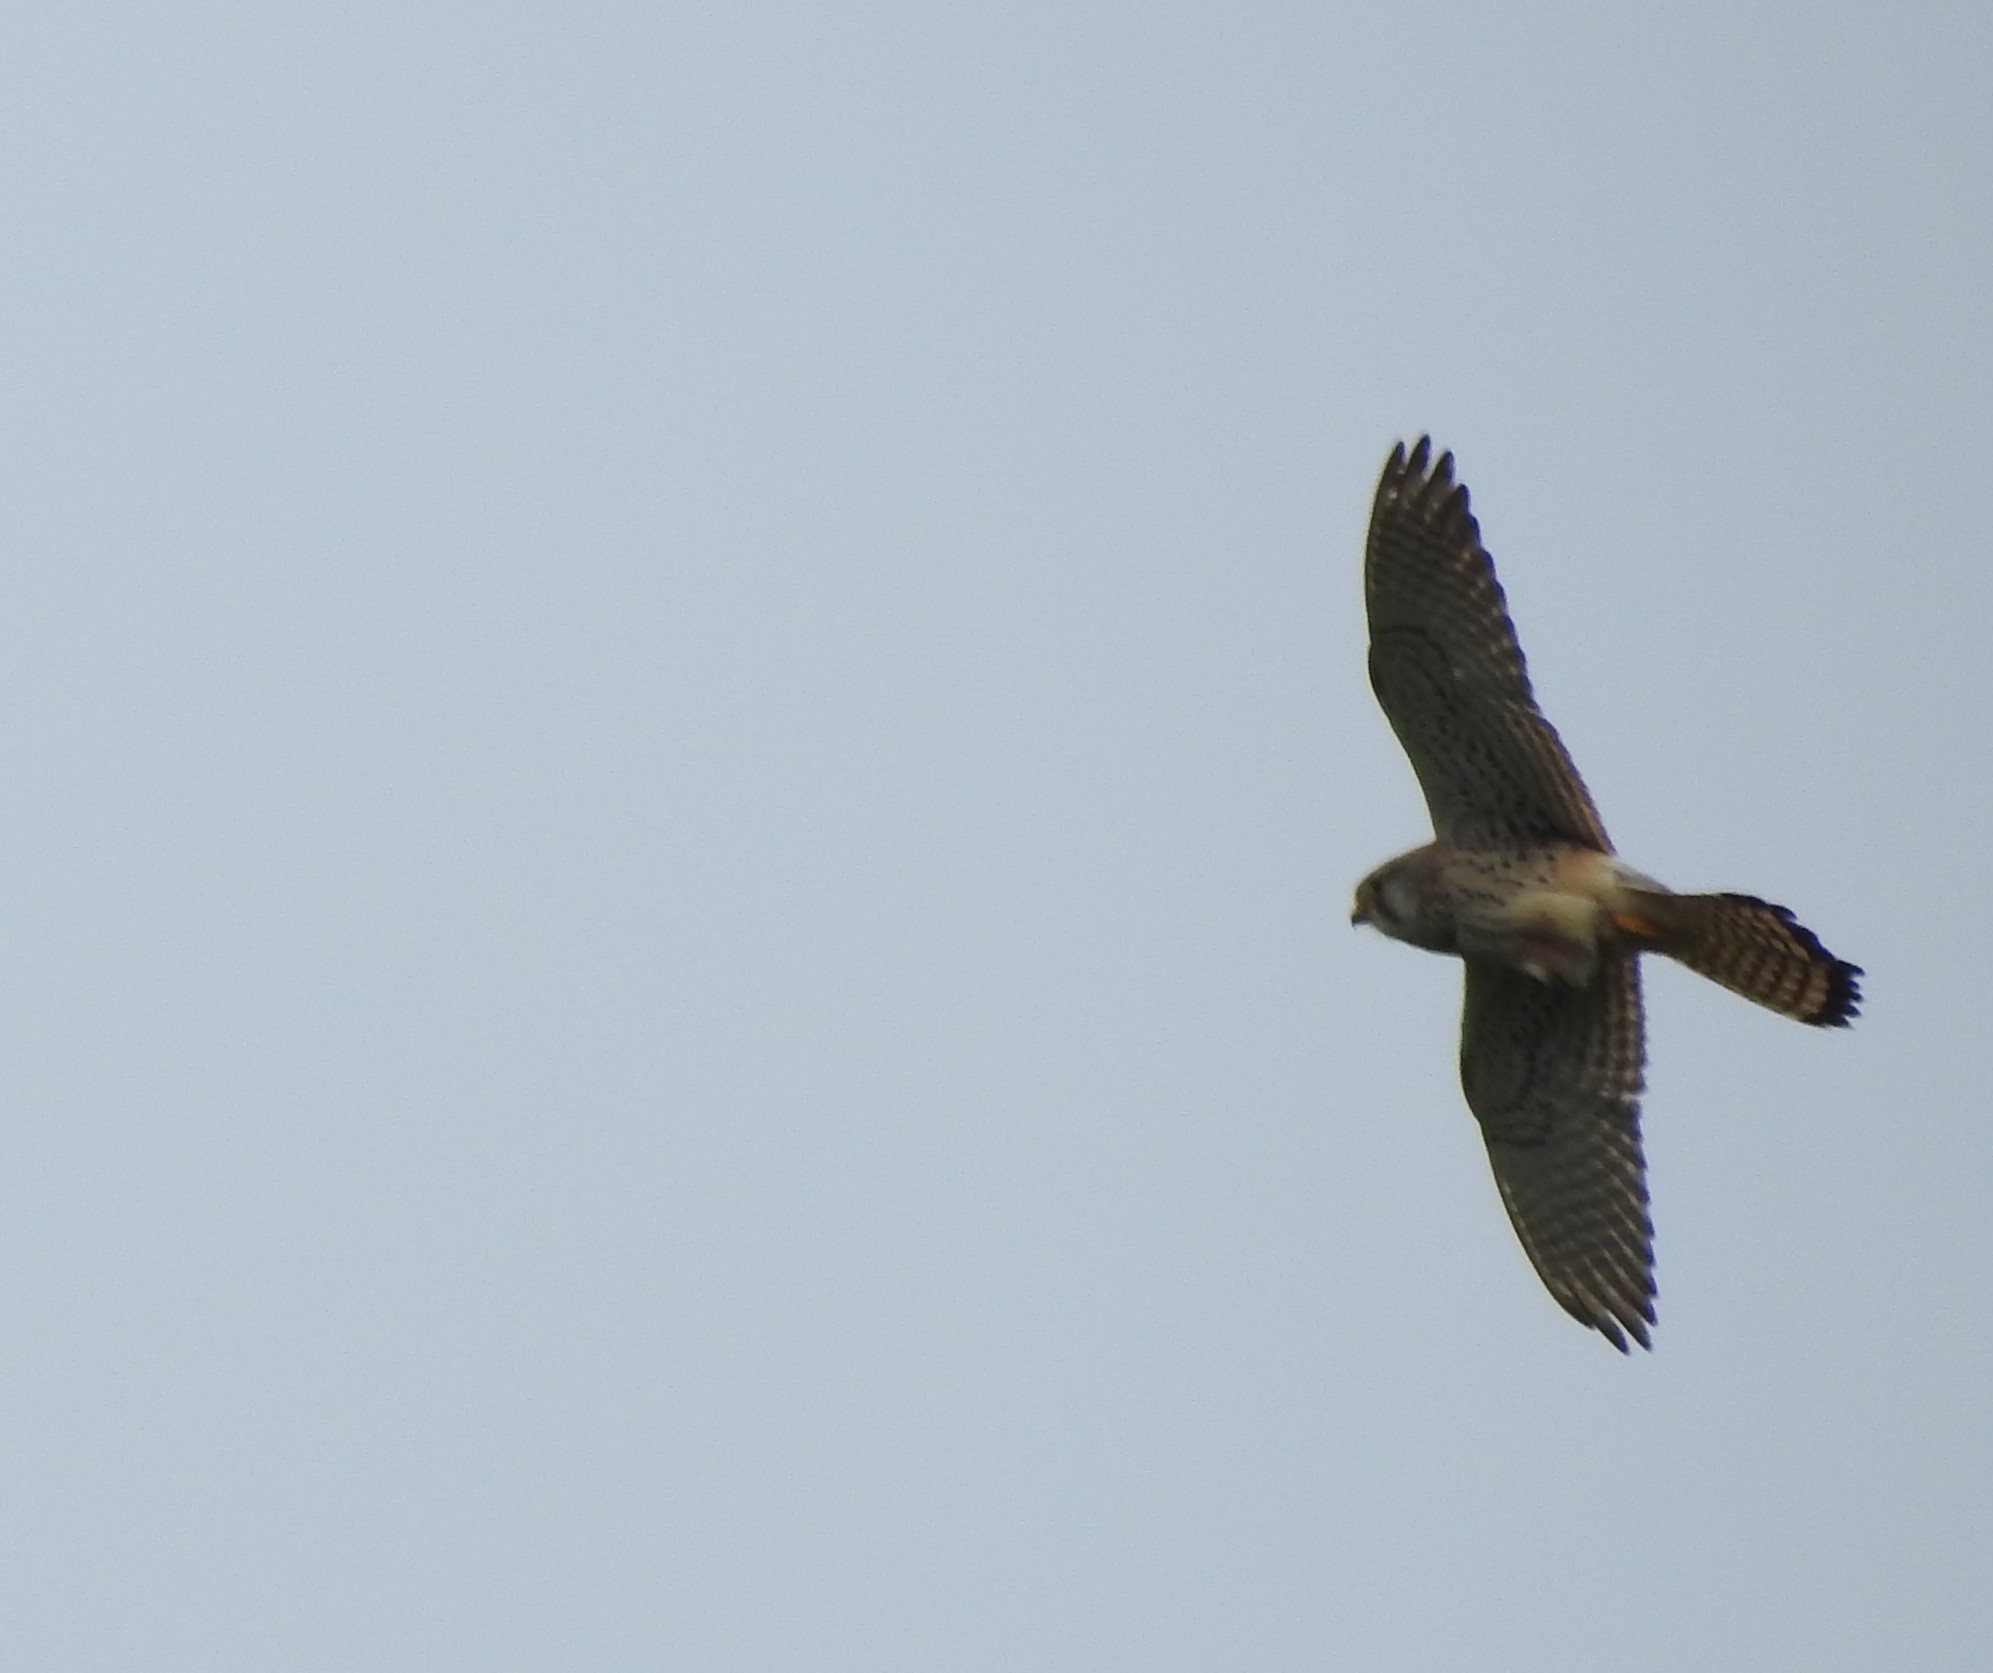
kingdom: Animalia
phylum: Chordata
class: Aves
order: Falconiformes
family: Falconidae
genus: Falco
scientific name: Falco tinnunculus
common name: Common kestrel
